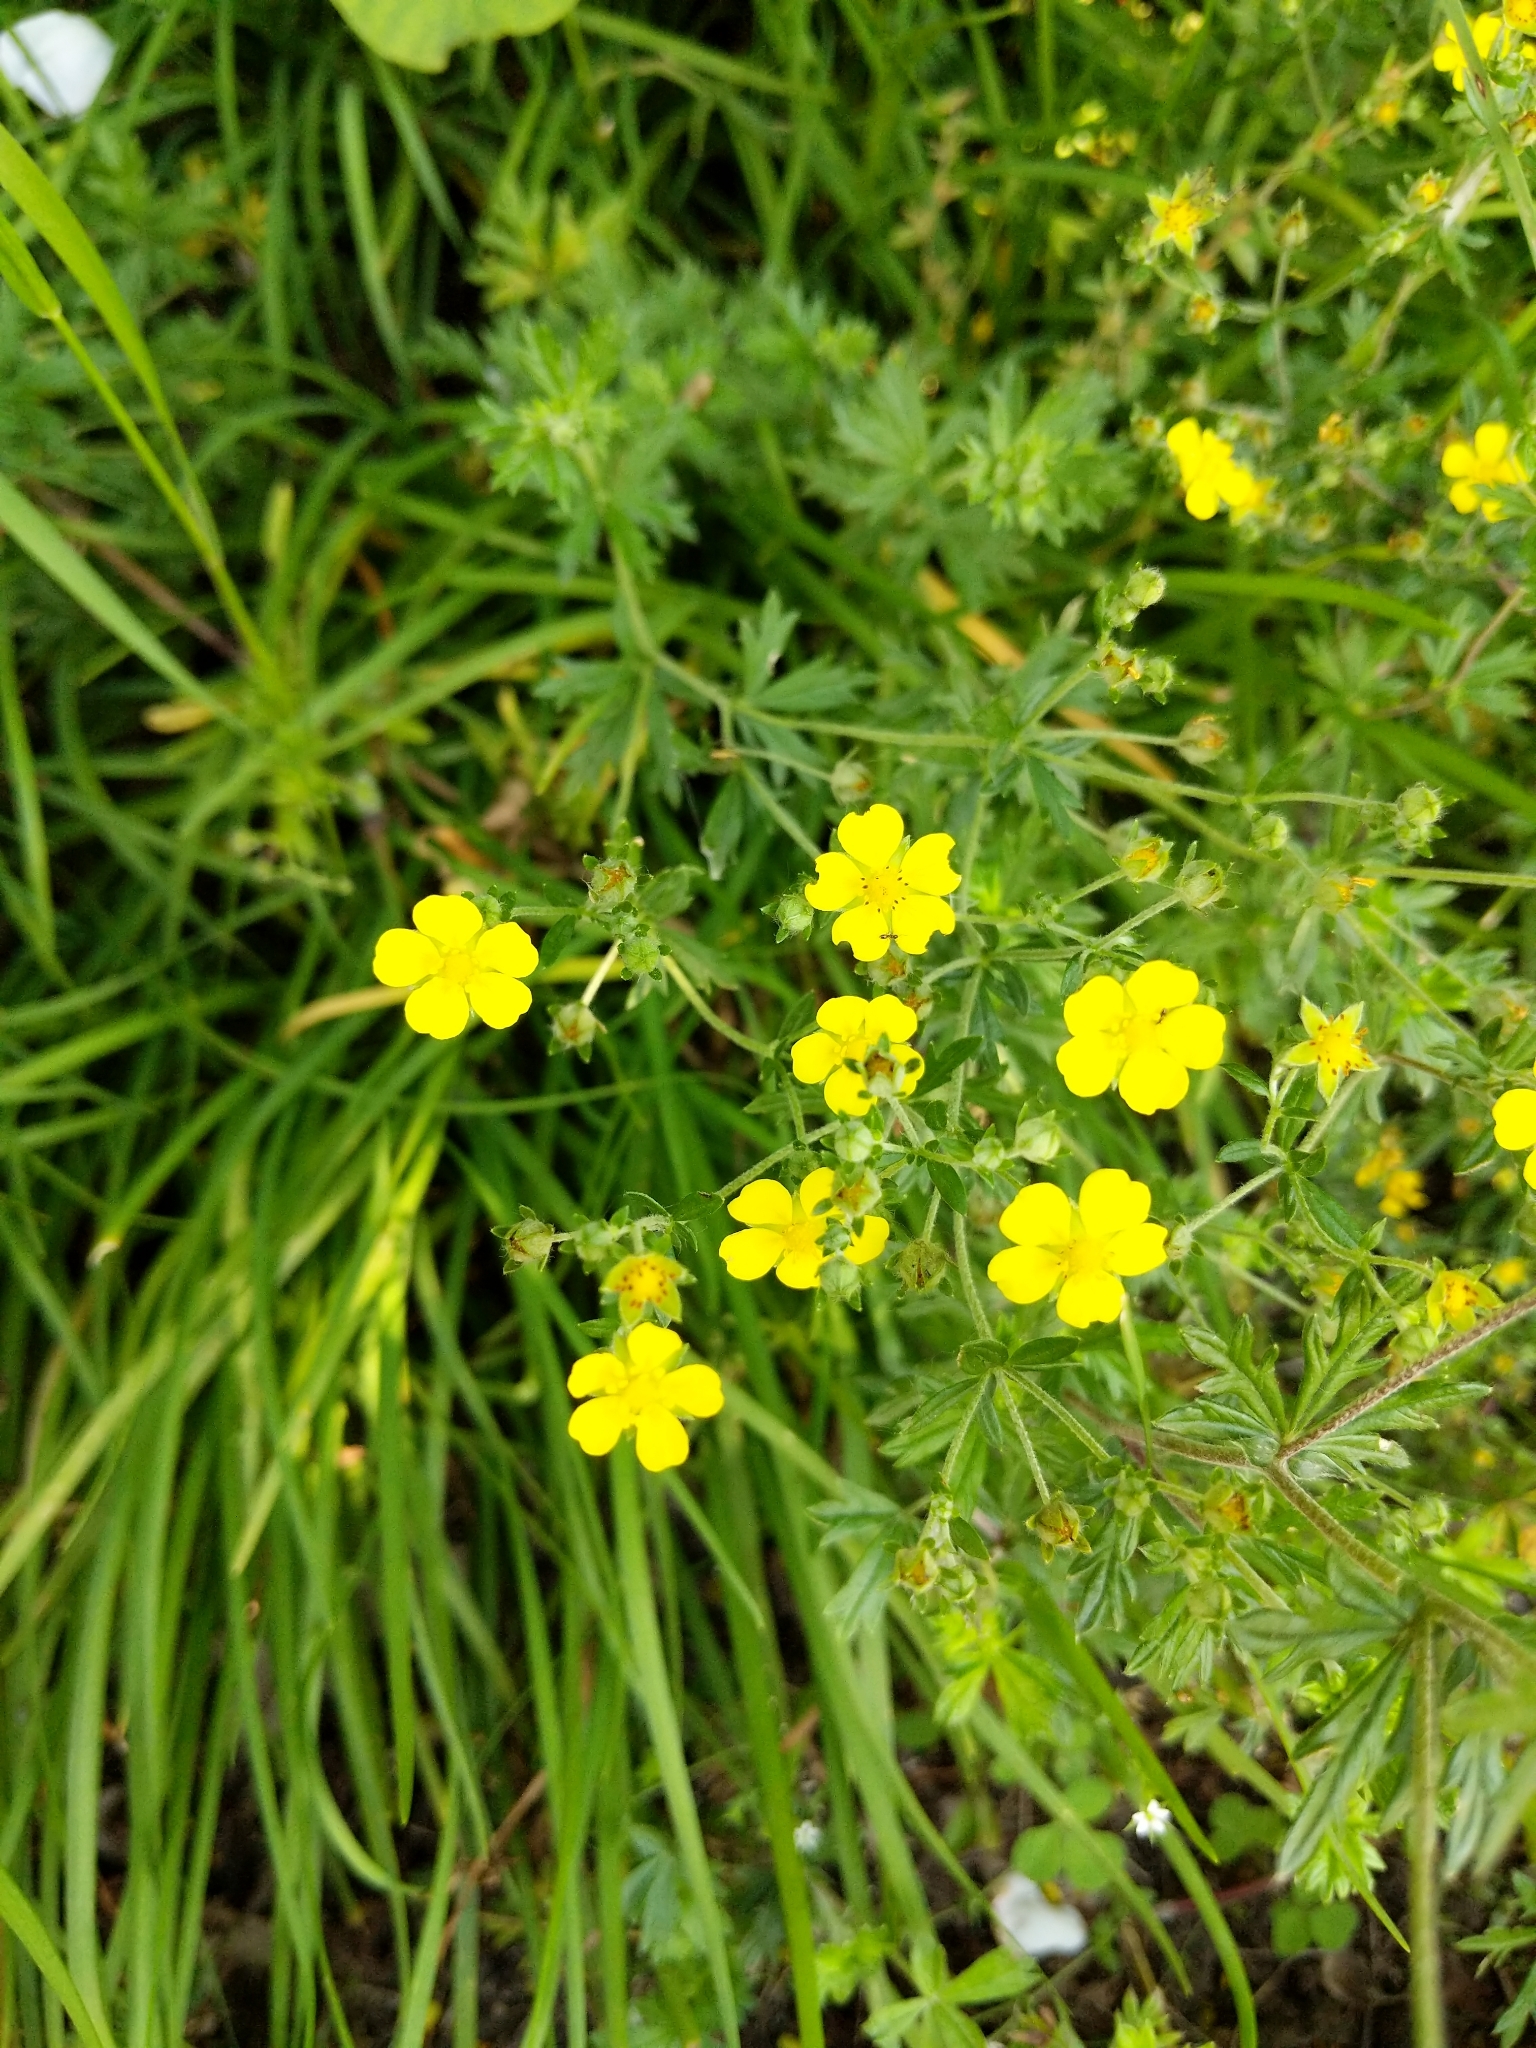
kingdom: Plantae
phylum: Tracheophyta
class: Magnoliopsida
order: Rosales
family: Rosaceae
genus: Potentilla
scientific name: Potentilla argentea
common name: Hoary cinquefoil
